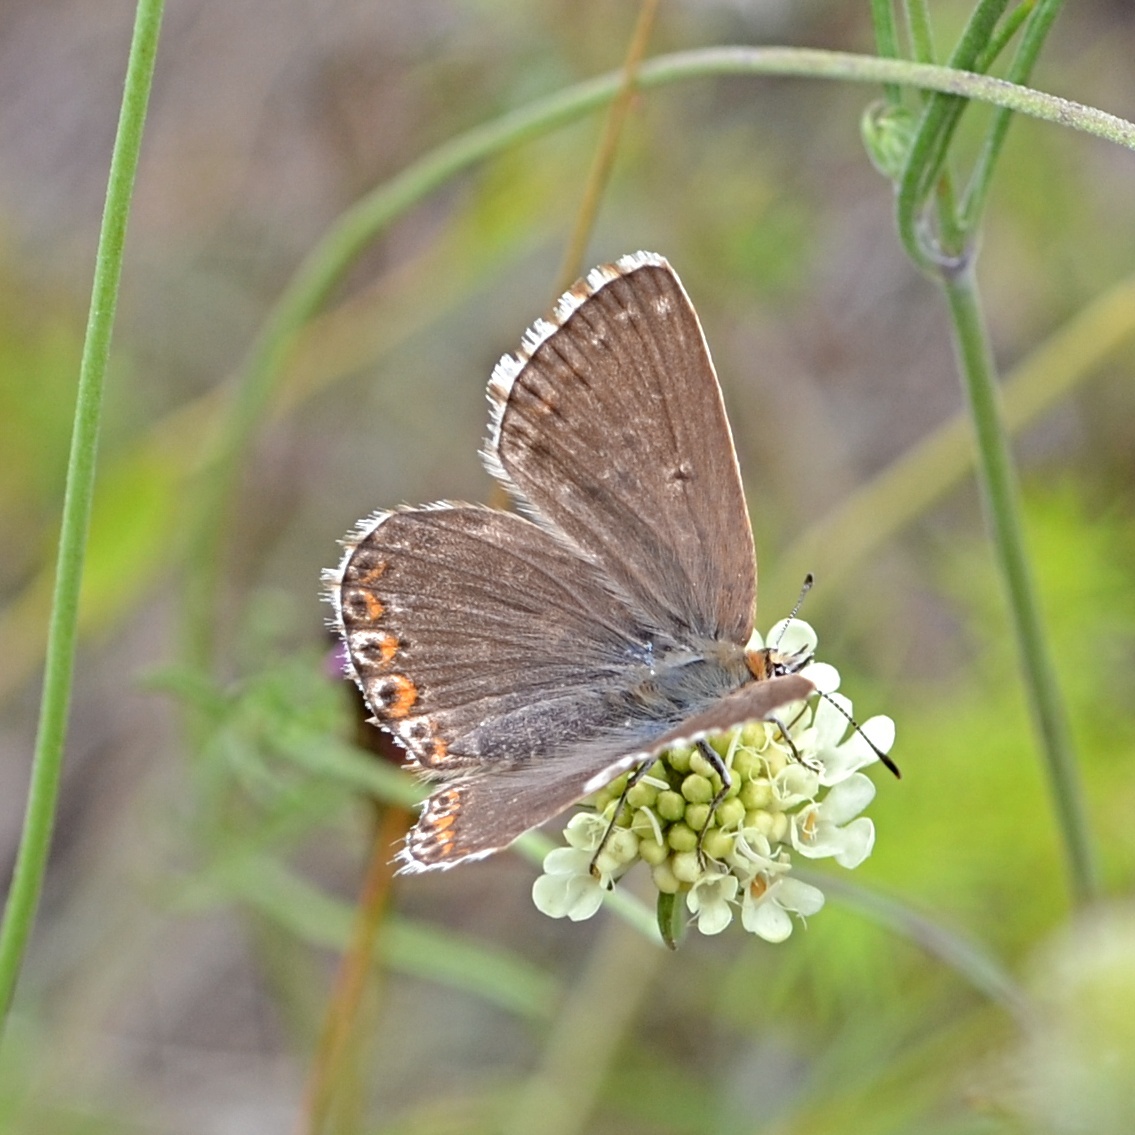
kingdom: Animalia
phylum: Arthropoda
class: Insecta
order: Lepidoptera
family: Lycaenidae
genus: Lysandra
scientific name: Lysandra coridon
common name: Chalkhill blue
